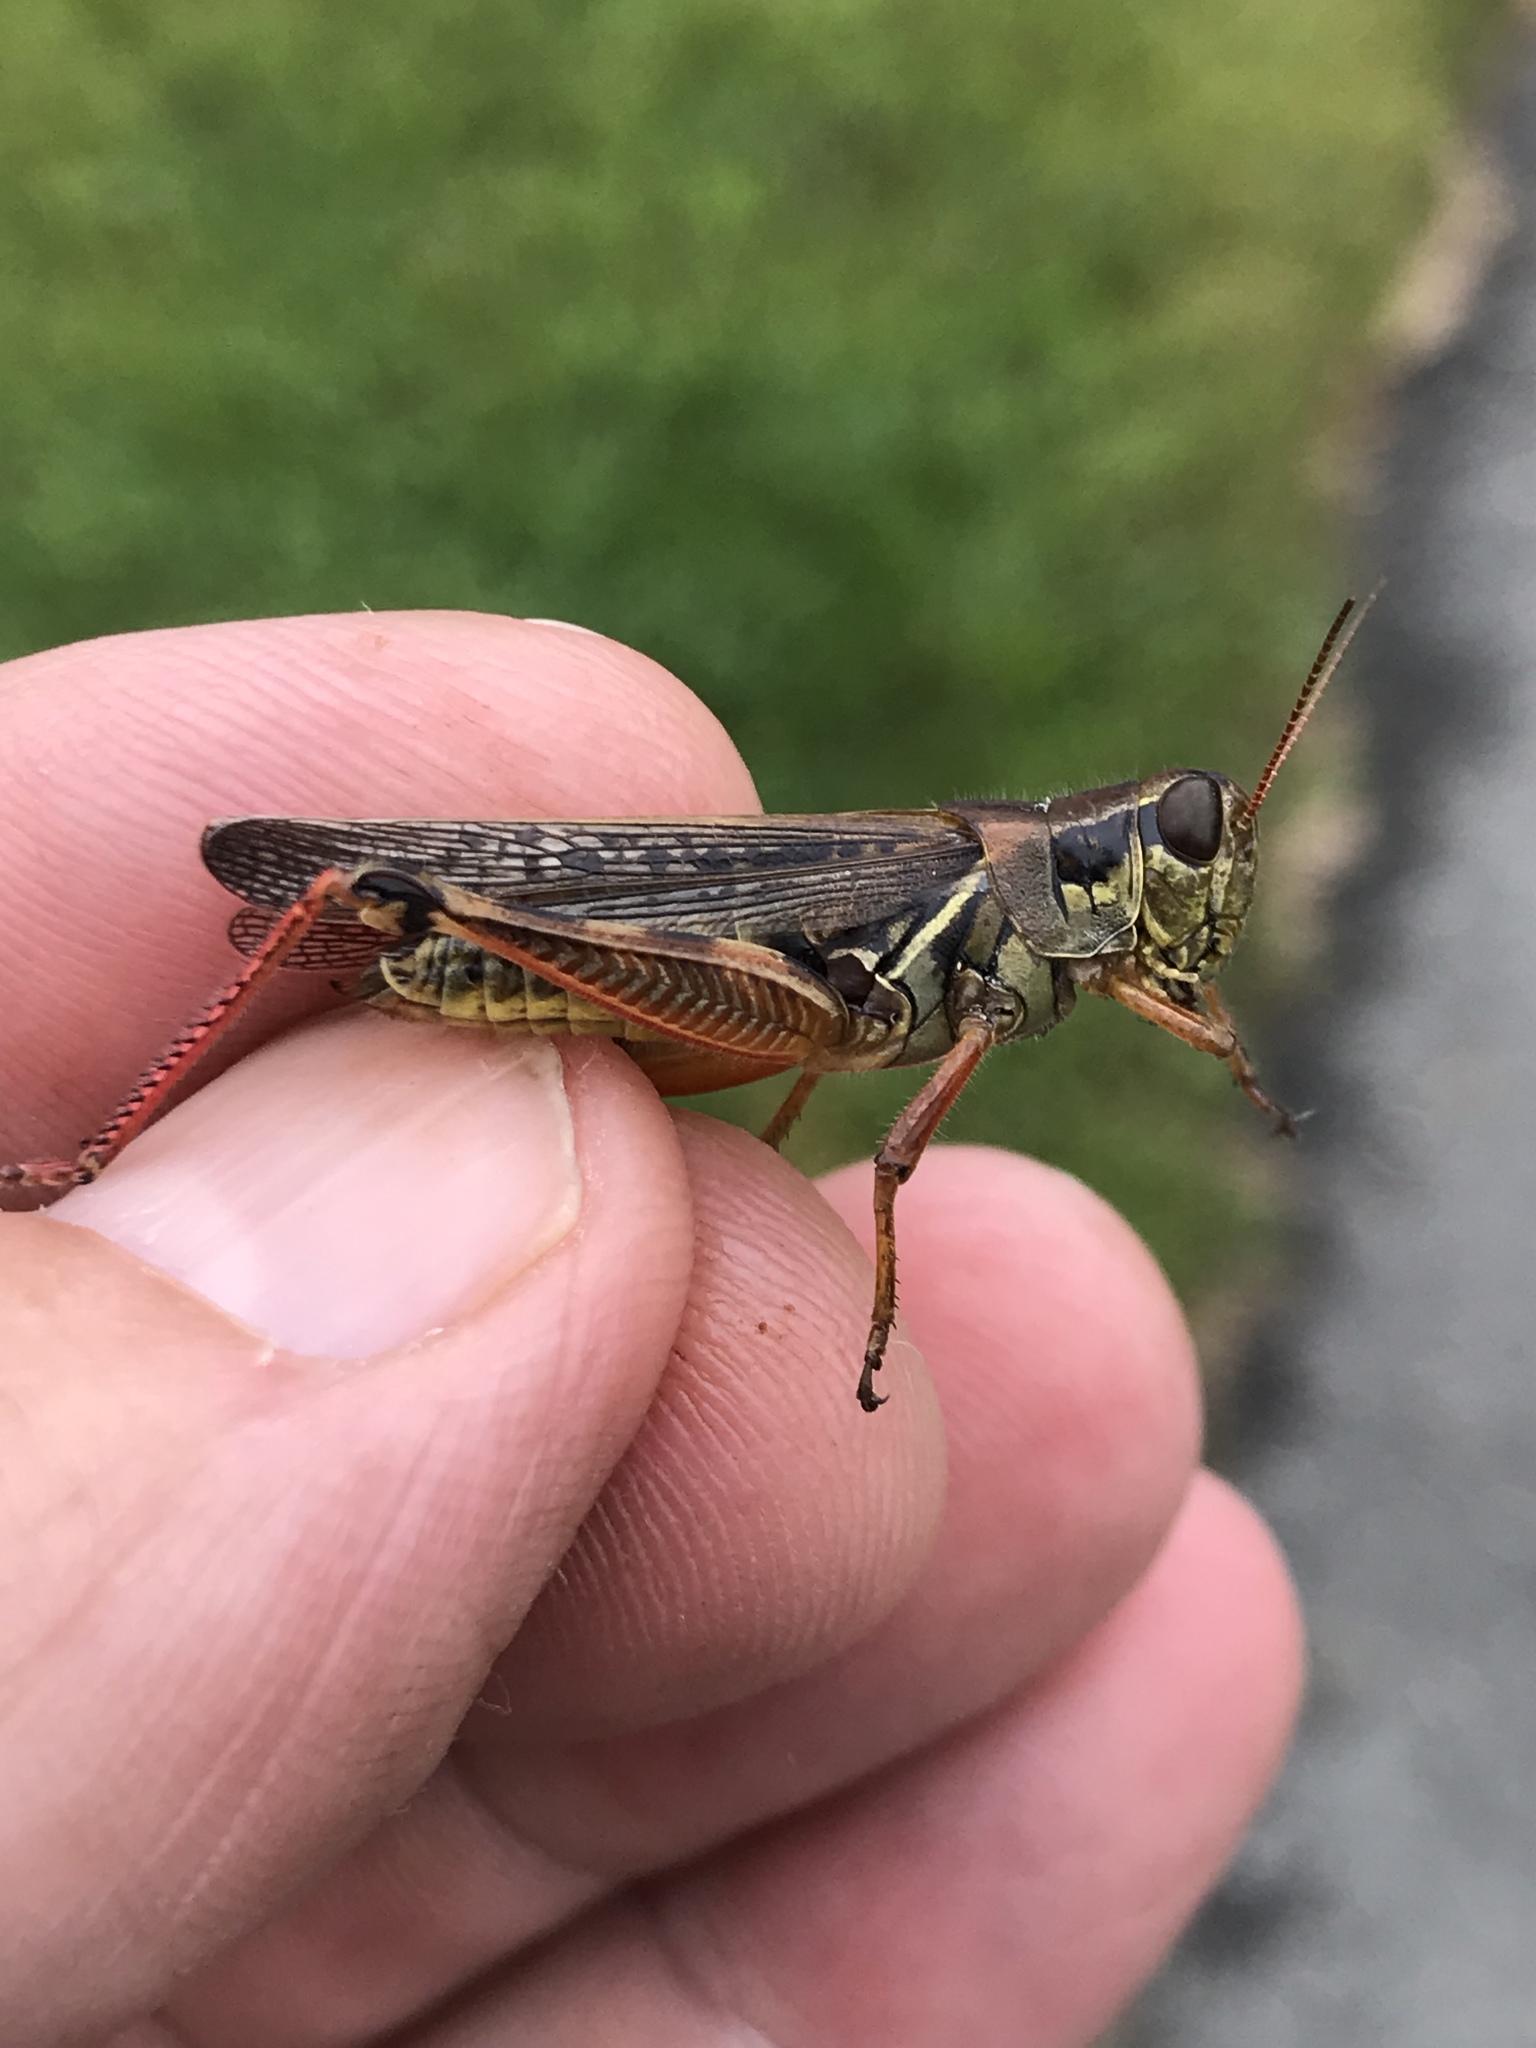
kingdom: Animalia
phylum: Arthropoda
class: Insecta
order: Orthoptera
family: Acrididae
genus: Melanoplus
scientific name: Melanoplus femurrubrum
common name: Red-legged grasshopper
